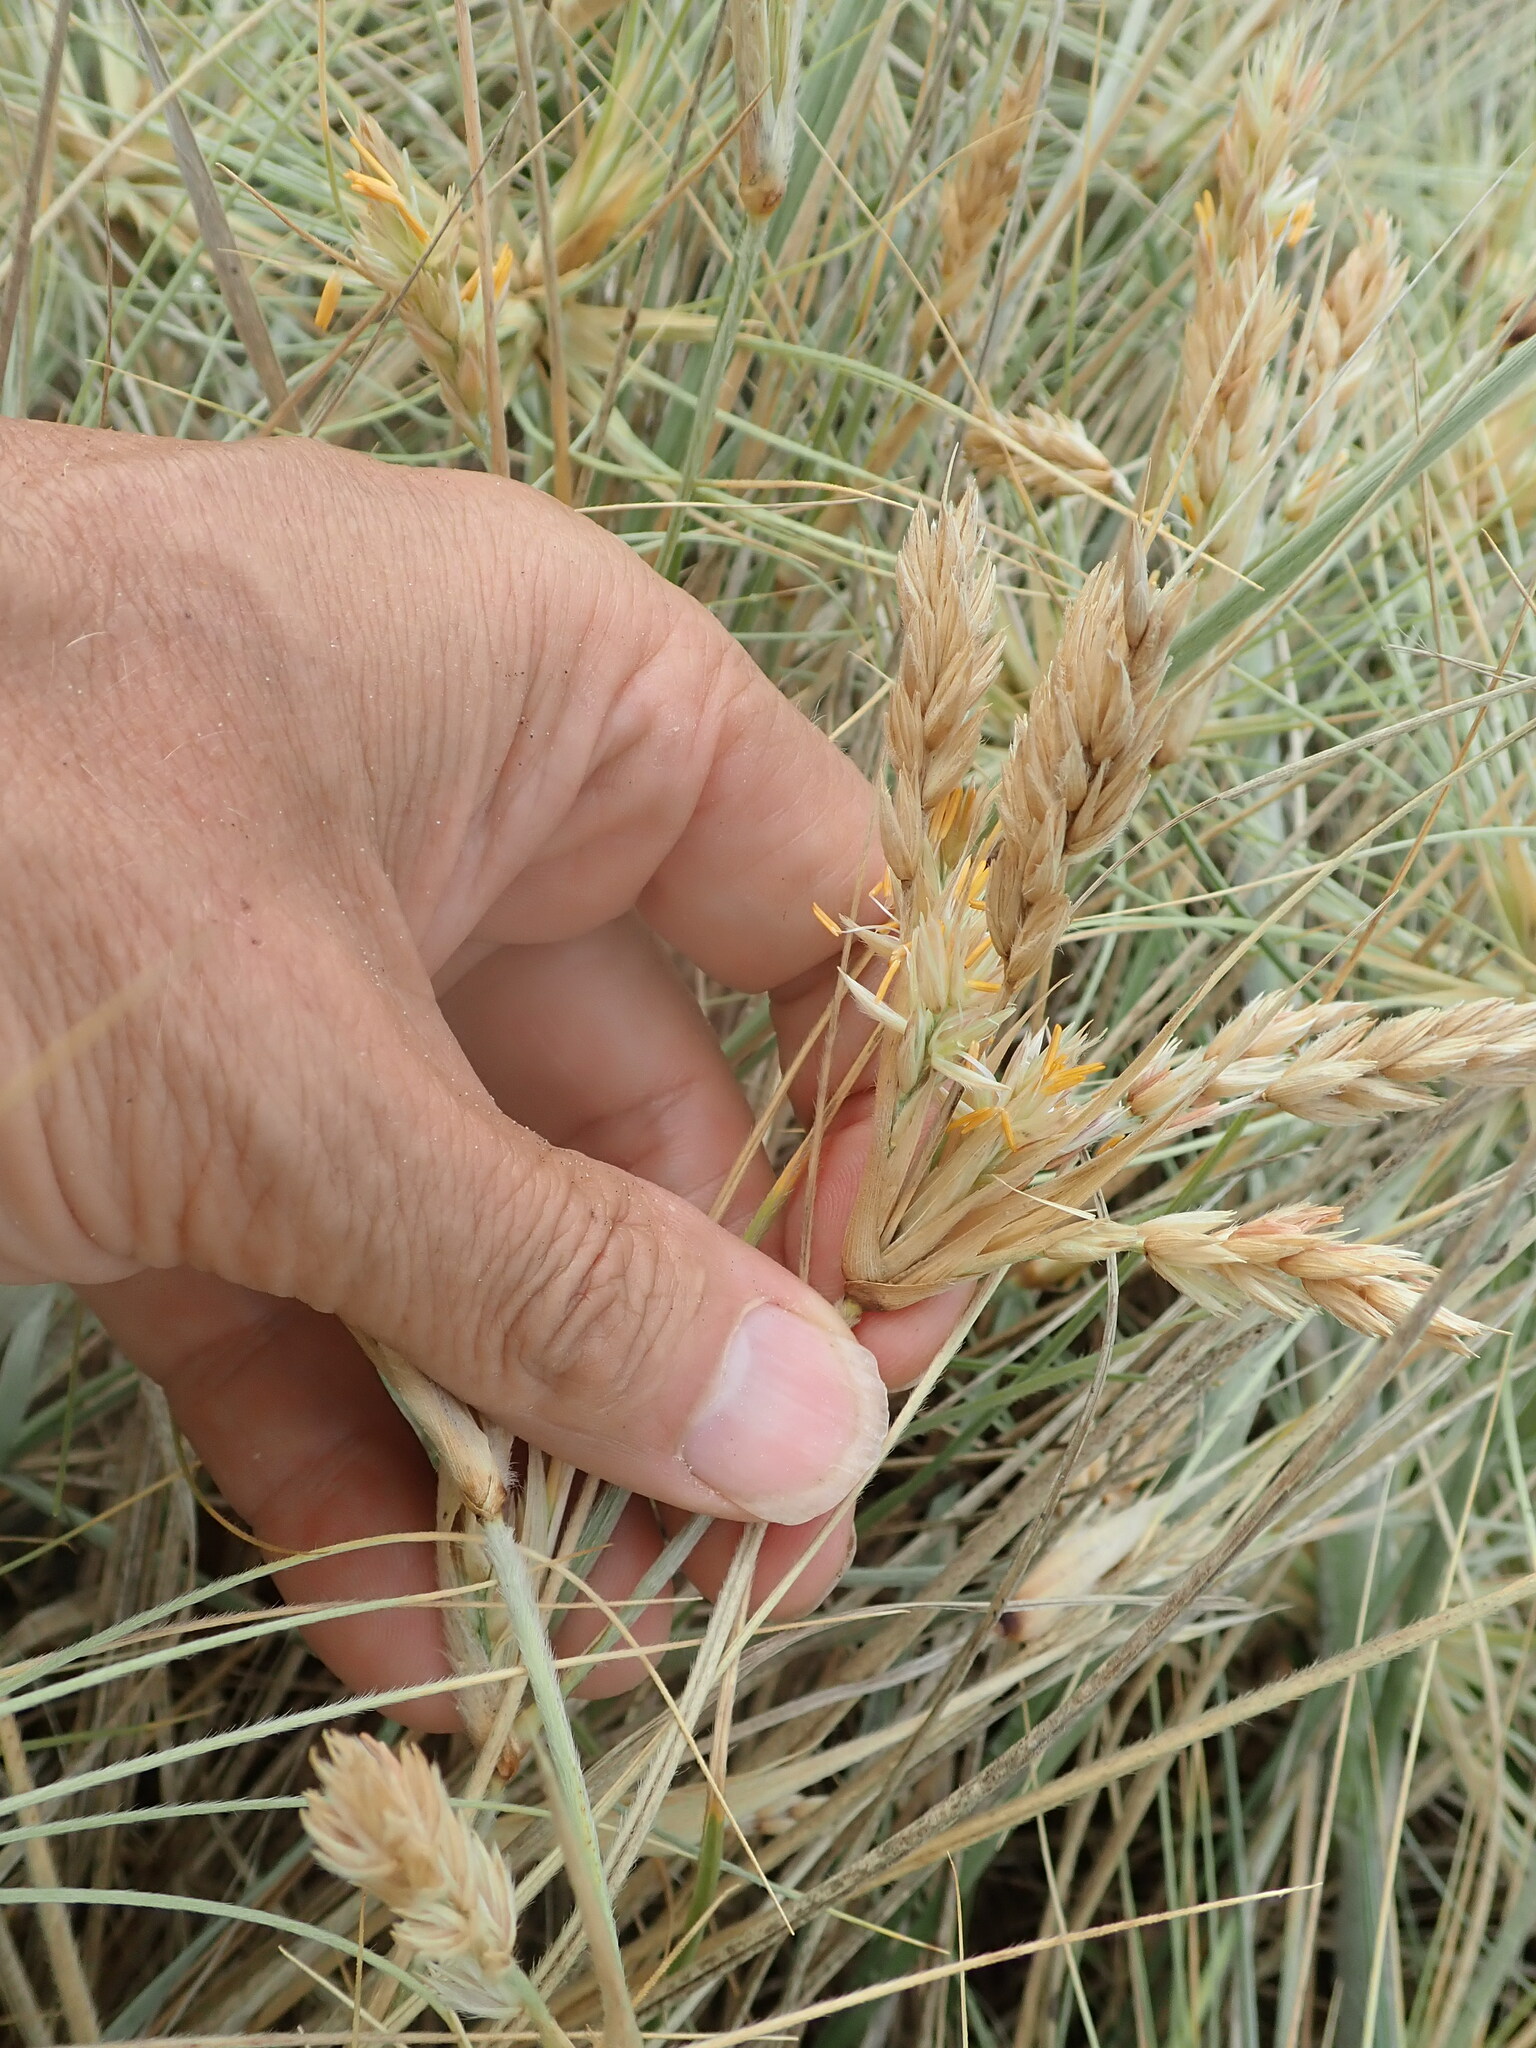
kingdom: Plantae
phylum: Tracheophyta
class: Liliopsida
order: Poales
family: Poaceae
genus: Spinifex
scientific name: Spinifex sericeus
